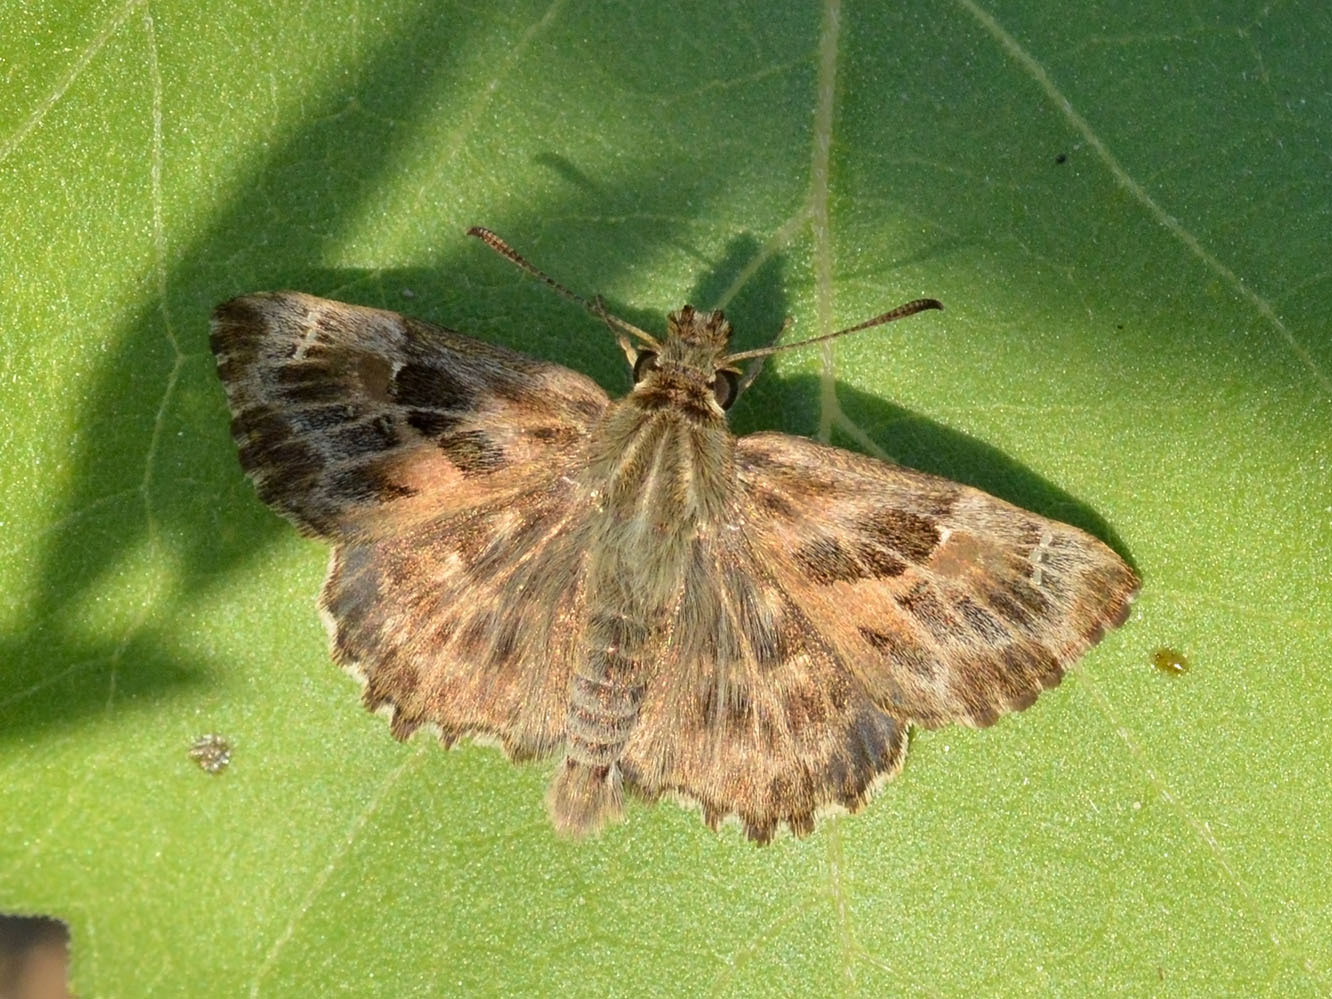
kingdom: Animalia
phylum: Arthropoda
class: Insecta
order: Lepidoptera
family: Hesperiidae
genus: Carcharodus
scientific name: Carcharodus alceae
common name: Mallow skipper
